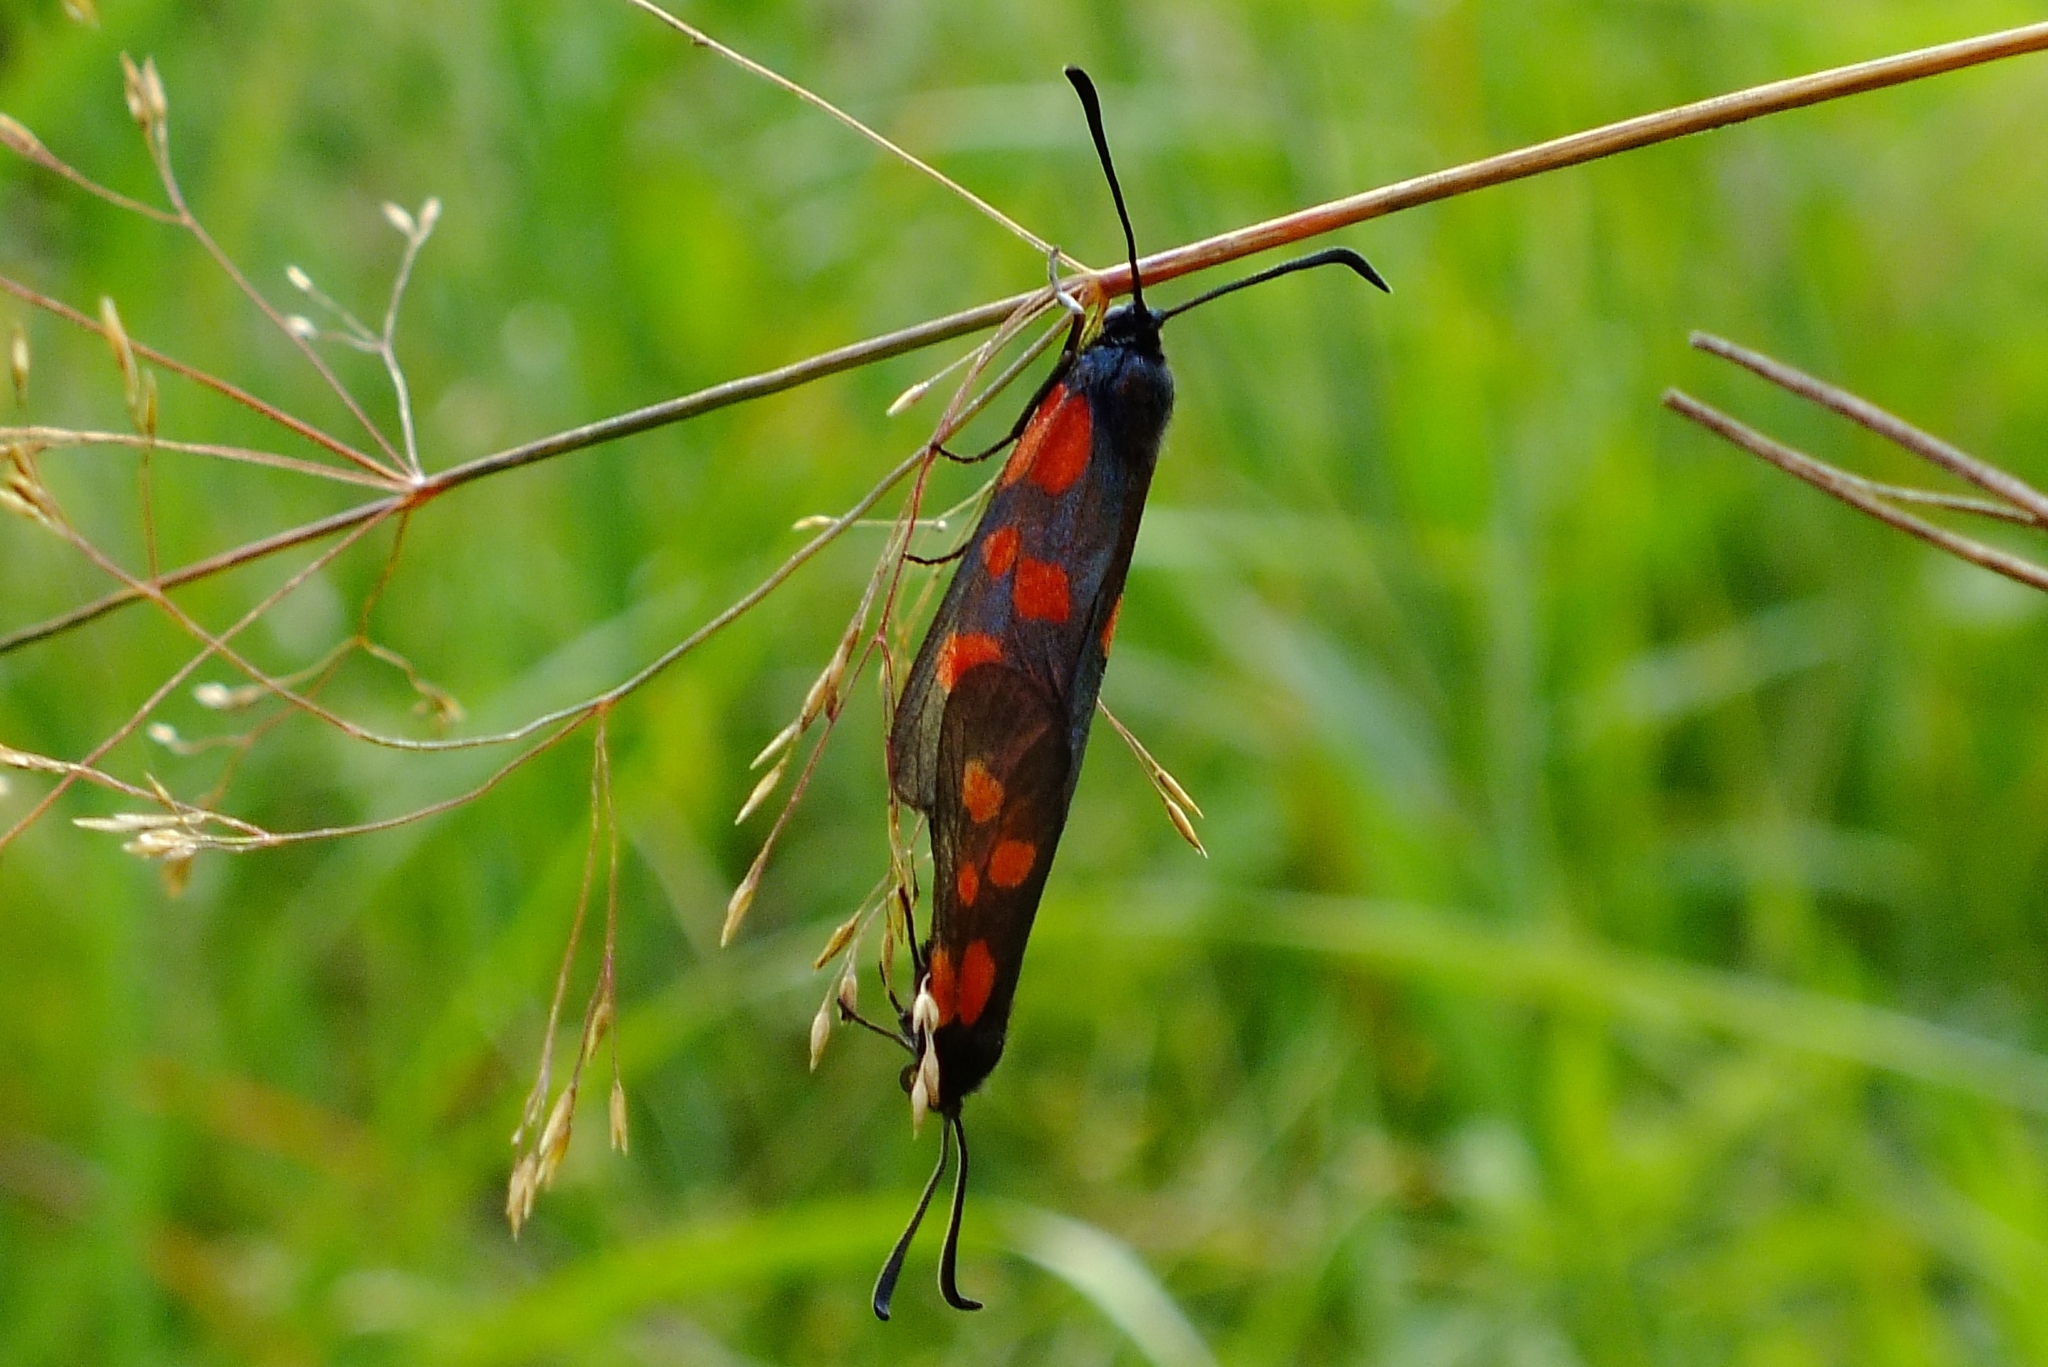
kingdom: Animalia
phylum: Arthropoda
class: Insecta
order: Lepidoptera
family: Zygaenidae
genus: Zygaena
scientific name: Zygaena viciae
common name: New forest burnet
